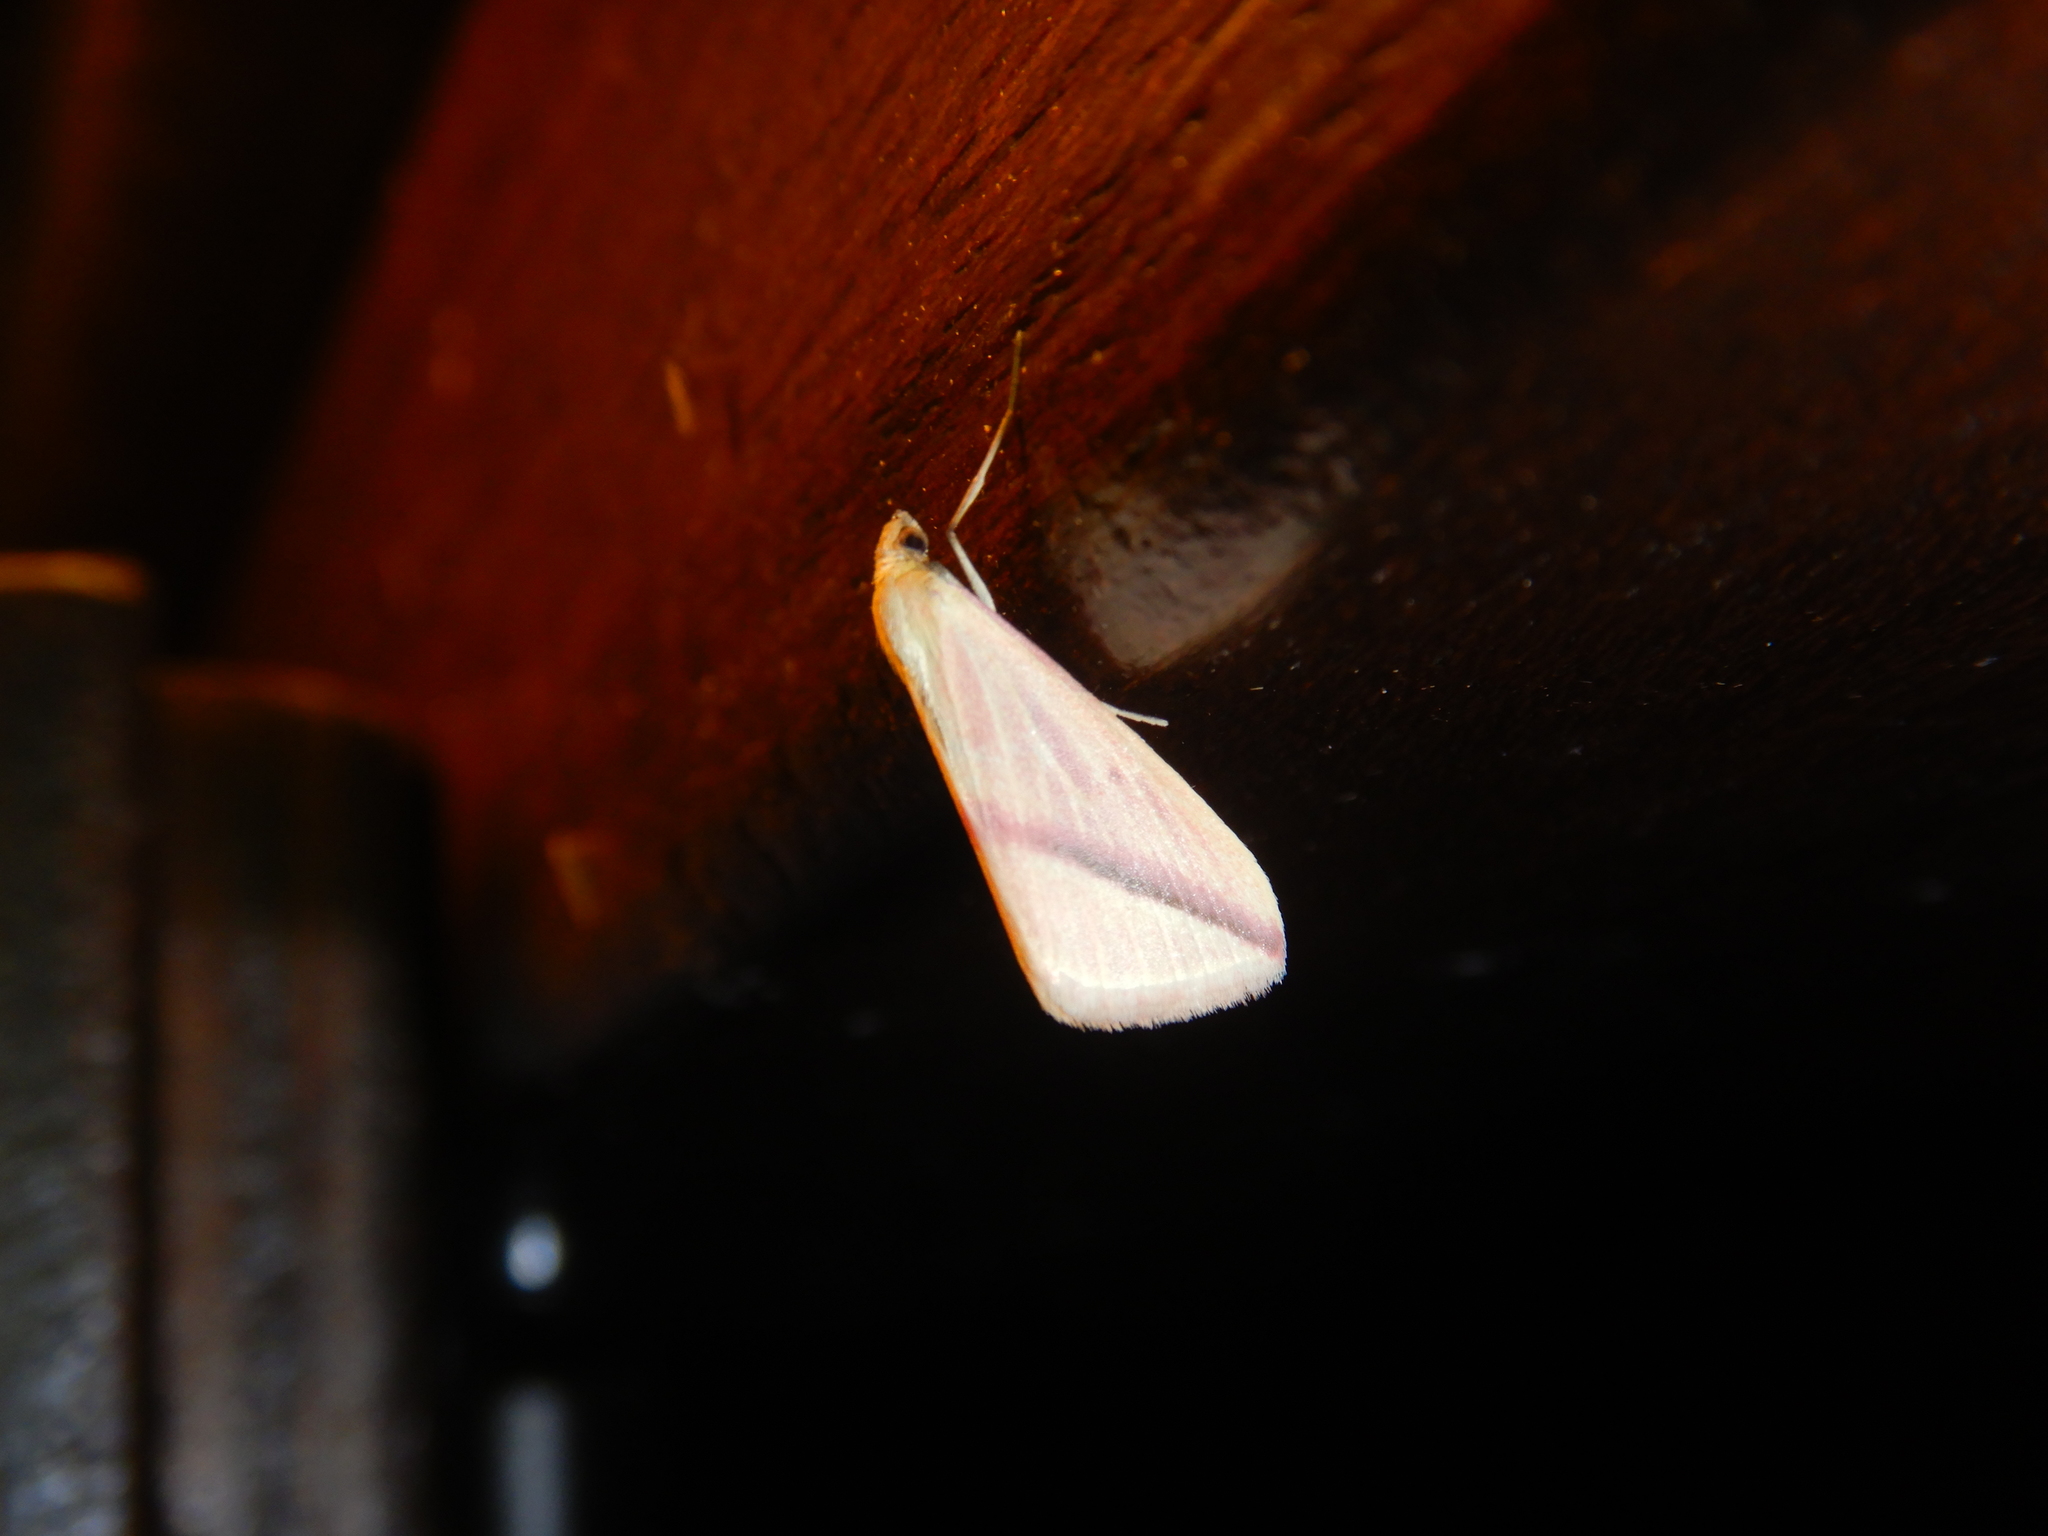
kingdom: Animalia
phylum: Arthropoda
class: Insecta
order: Lepidoptera
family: Geometridae
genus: Rhodometra
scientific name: Rhodometra sacraria
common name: Vestal
